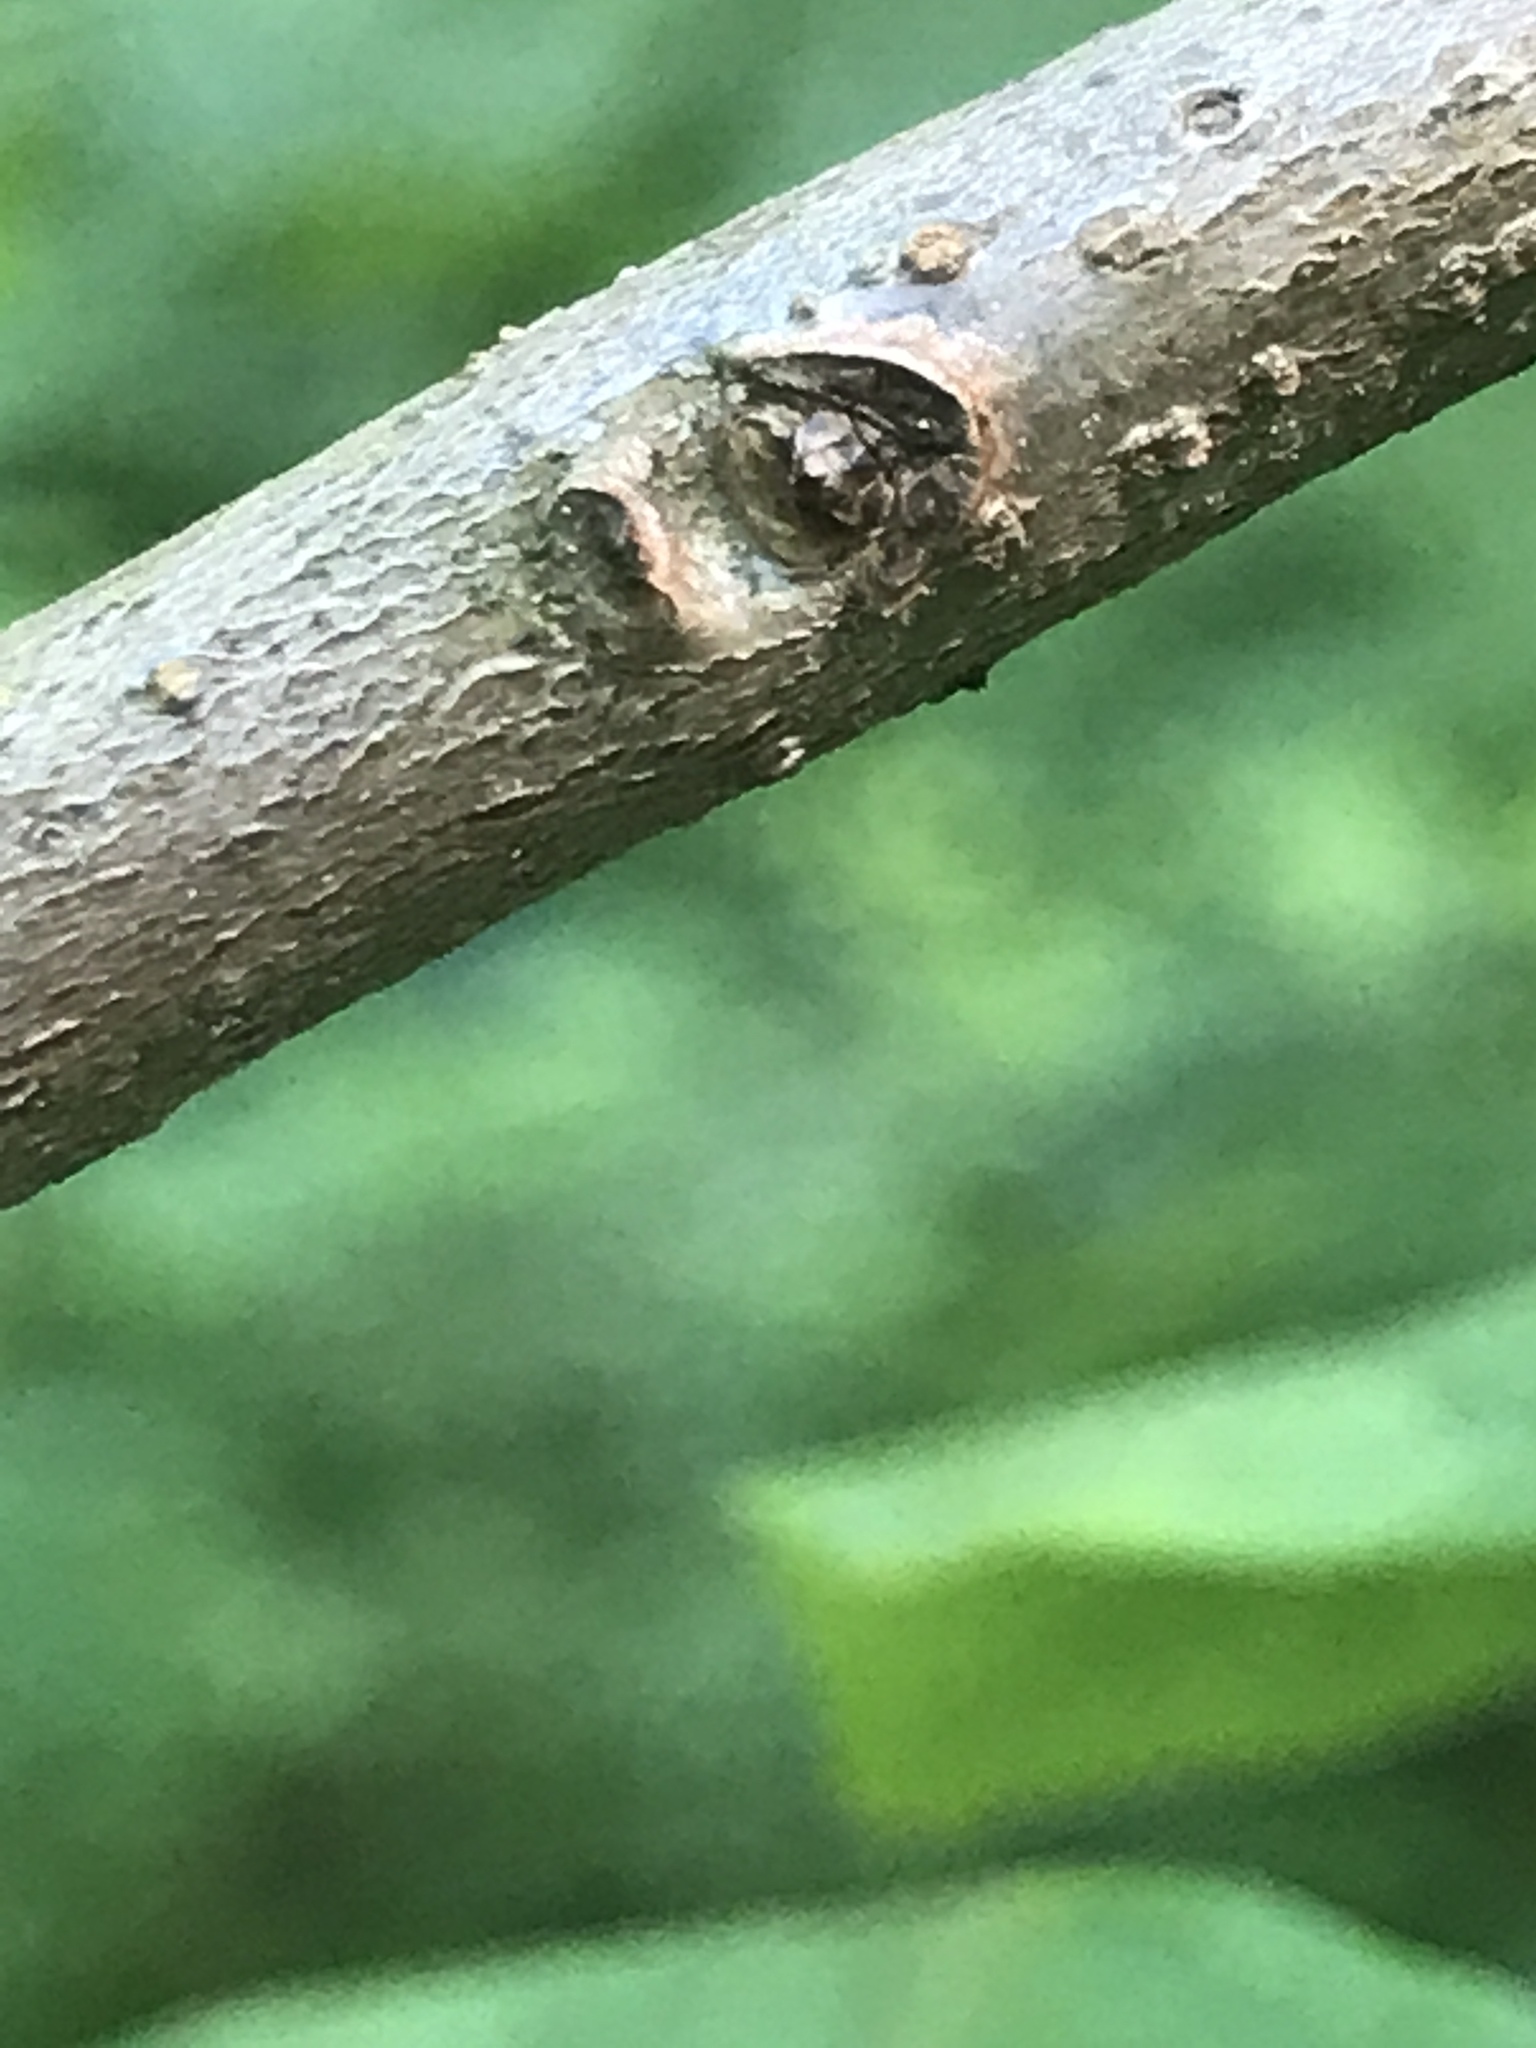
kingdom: Plantae
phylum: Tracheophyta
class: Magnoliopsida
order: Laurales
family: Lauraceae
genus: Lindera
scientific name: Lindera benzoin
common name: Spicebush
